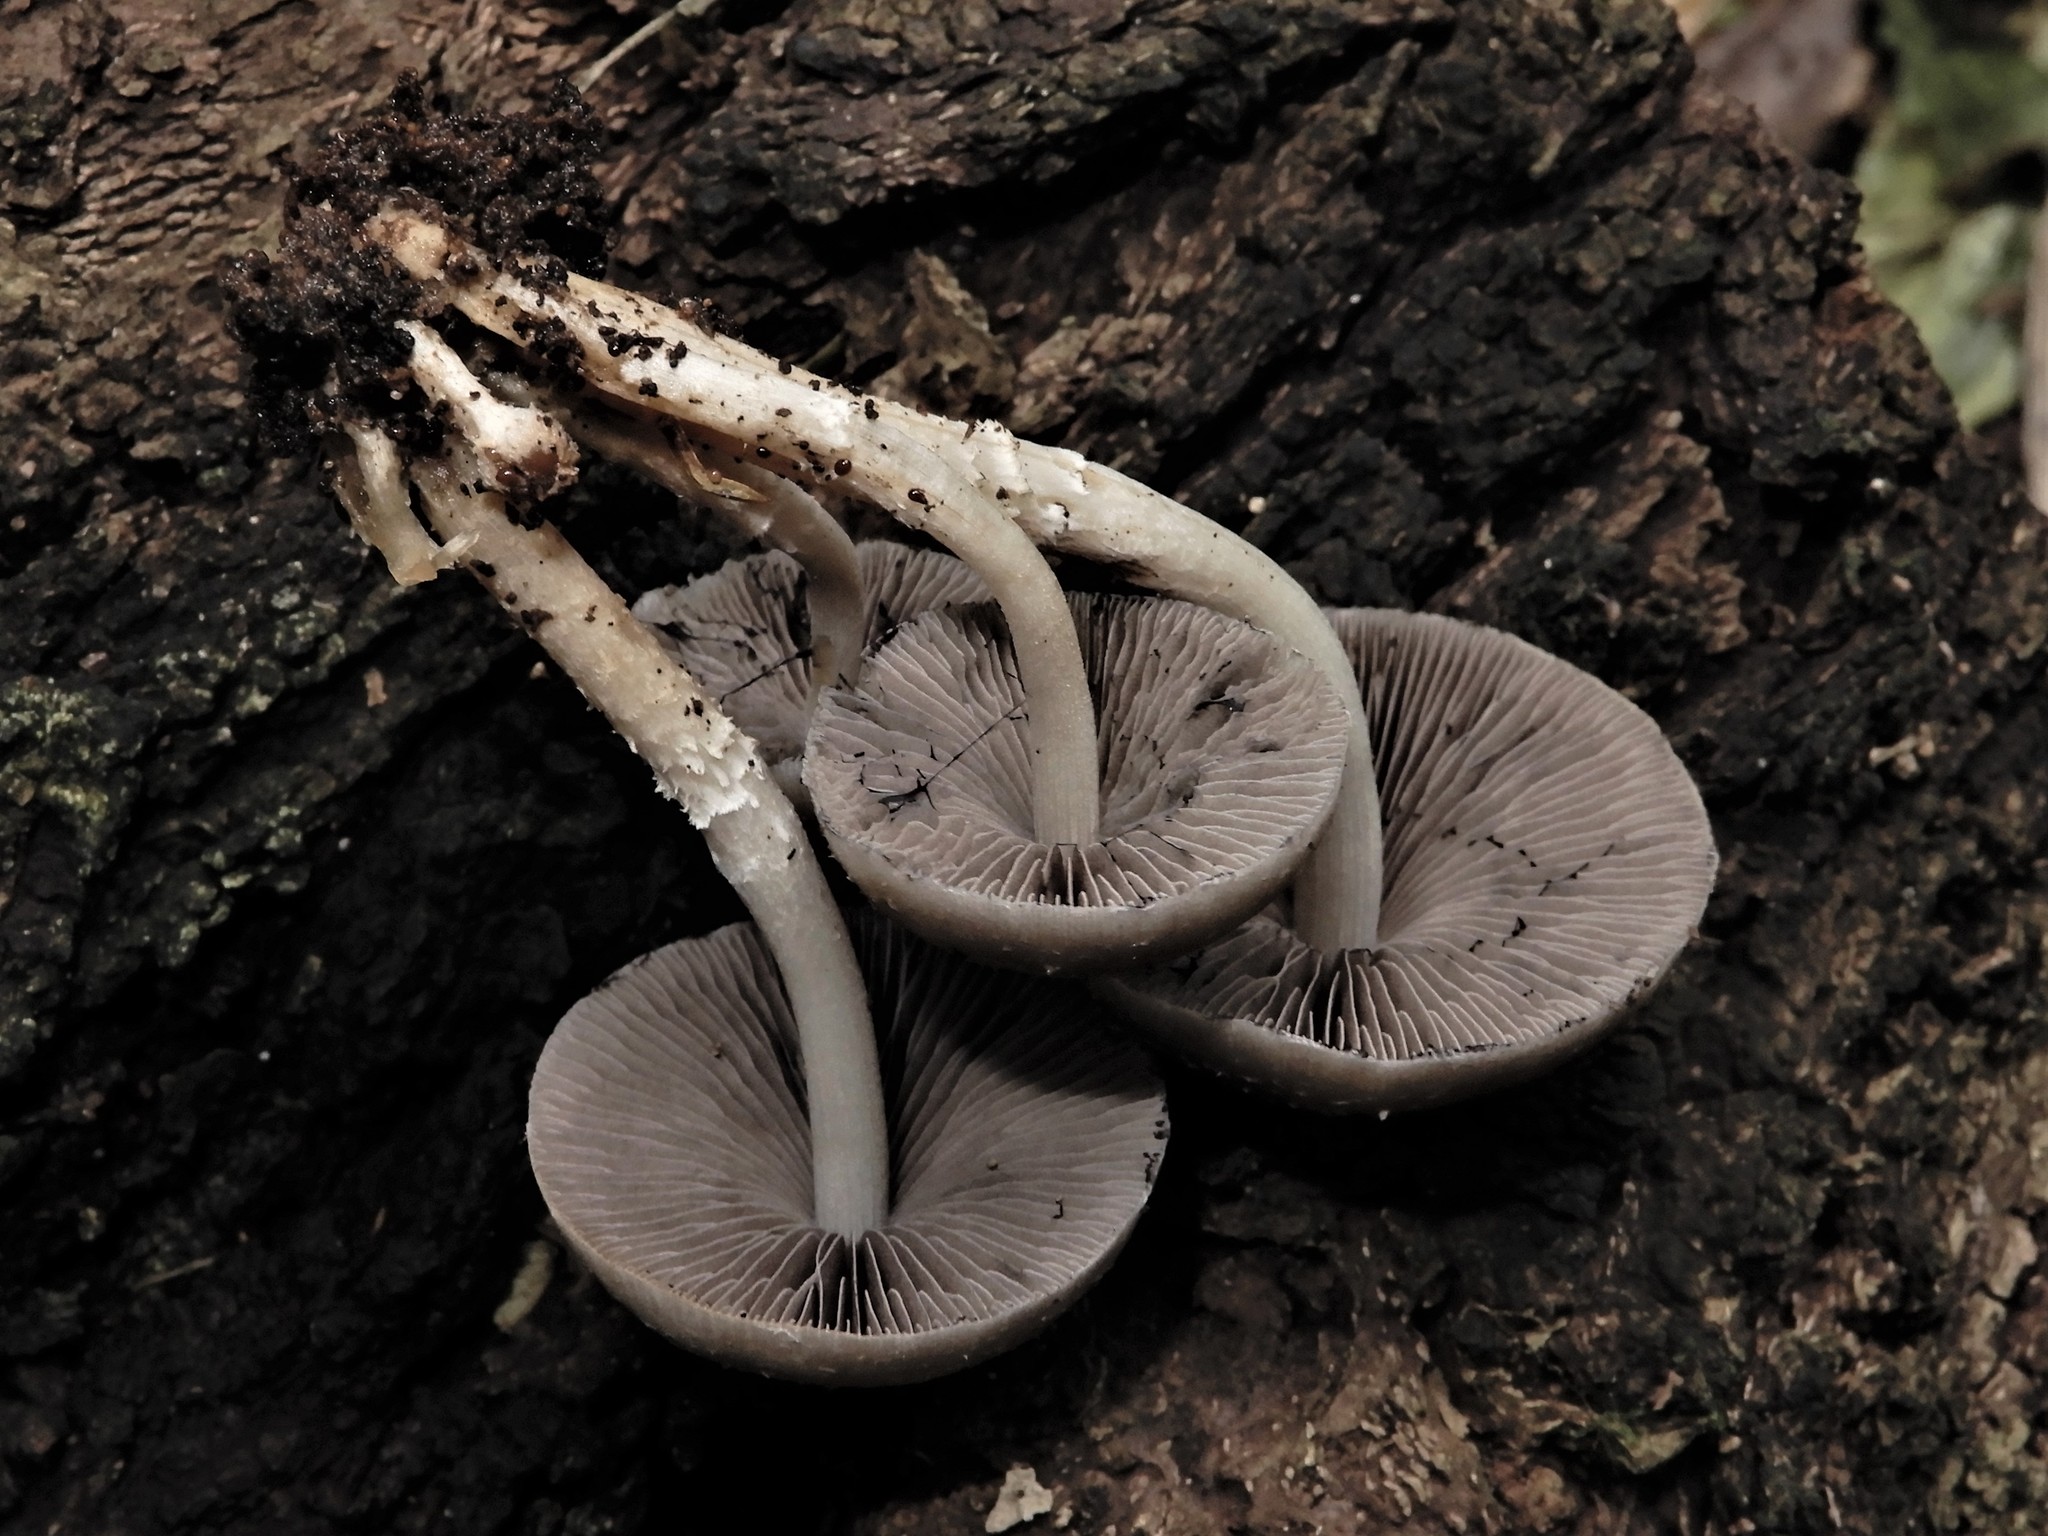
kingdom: Fungi
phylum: Basidiomycota
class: Agaricomycetes
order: Agaricales
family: Psathyrellaceae
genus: Candolleomyces
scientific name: Candolleomyces
